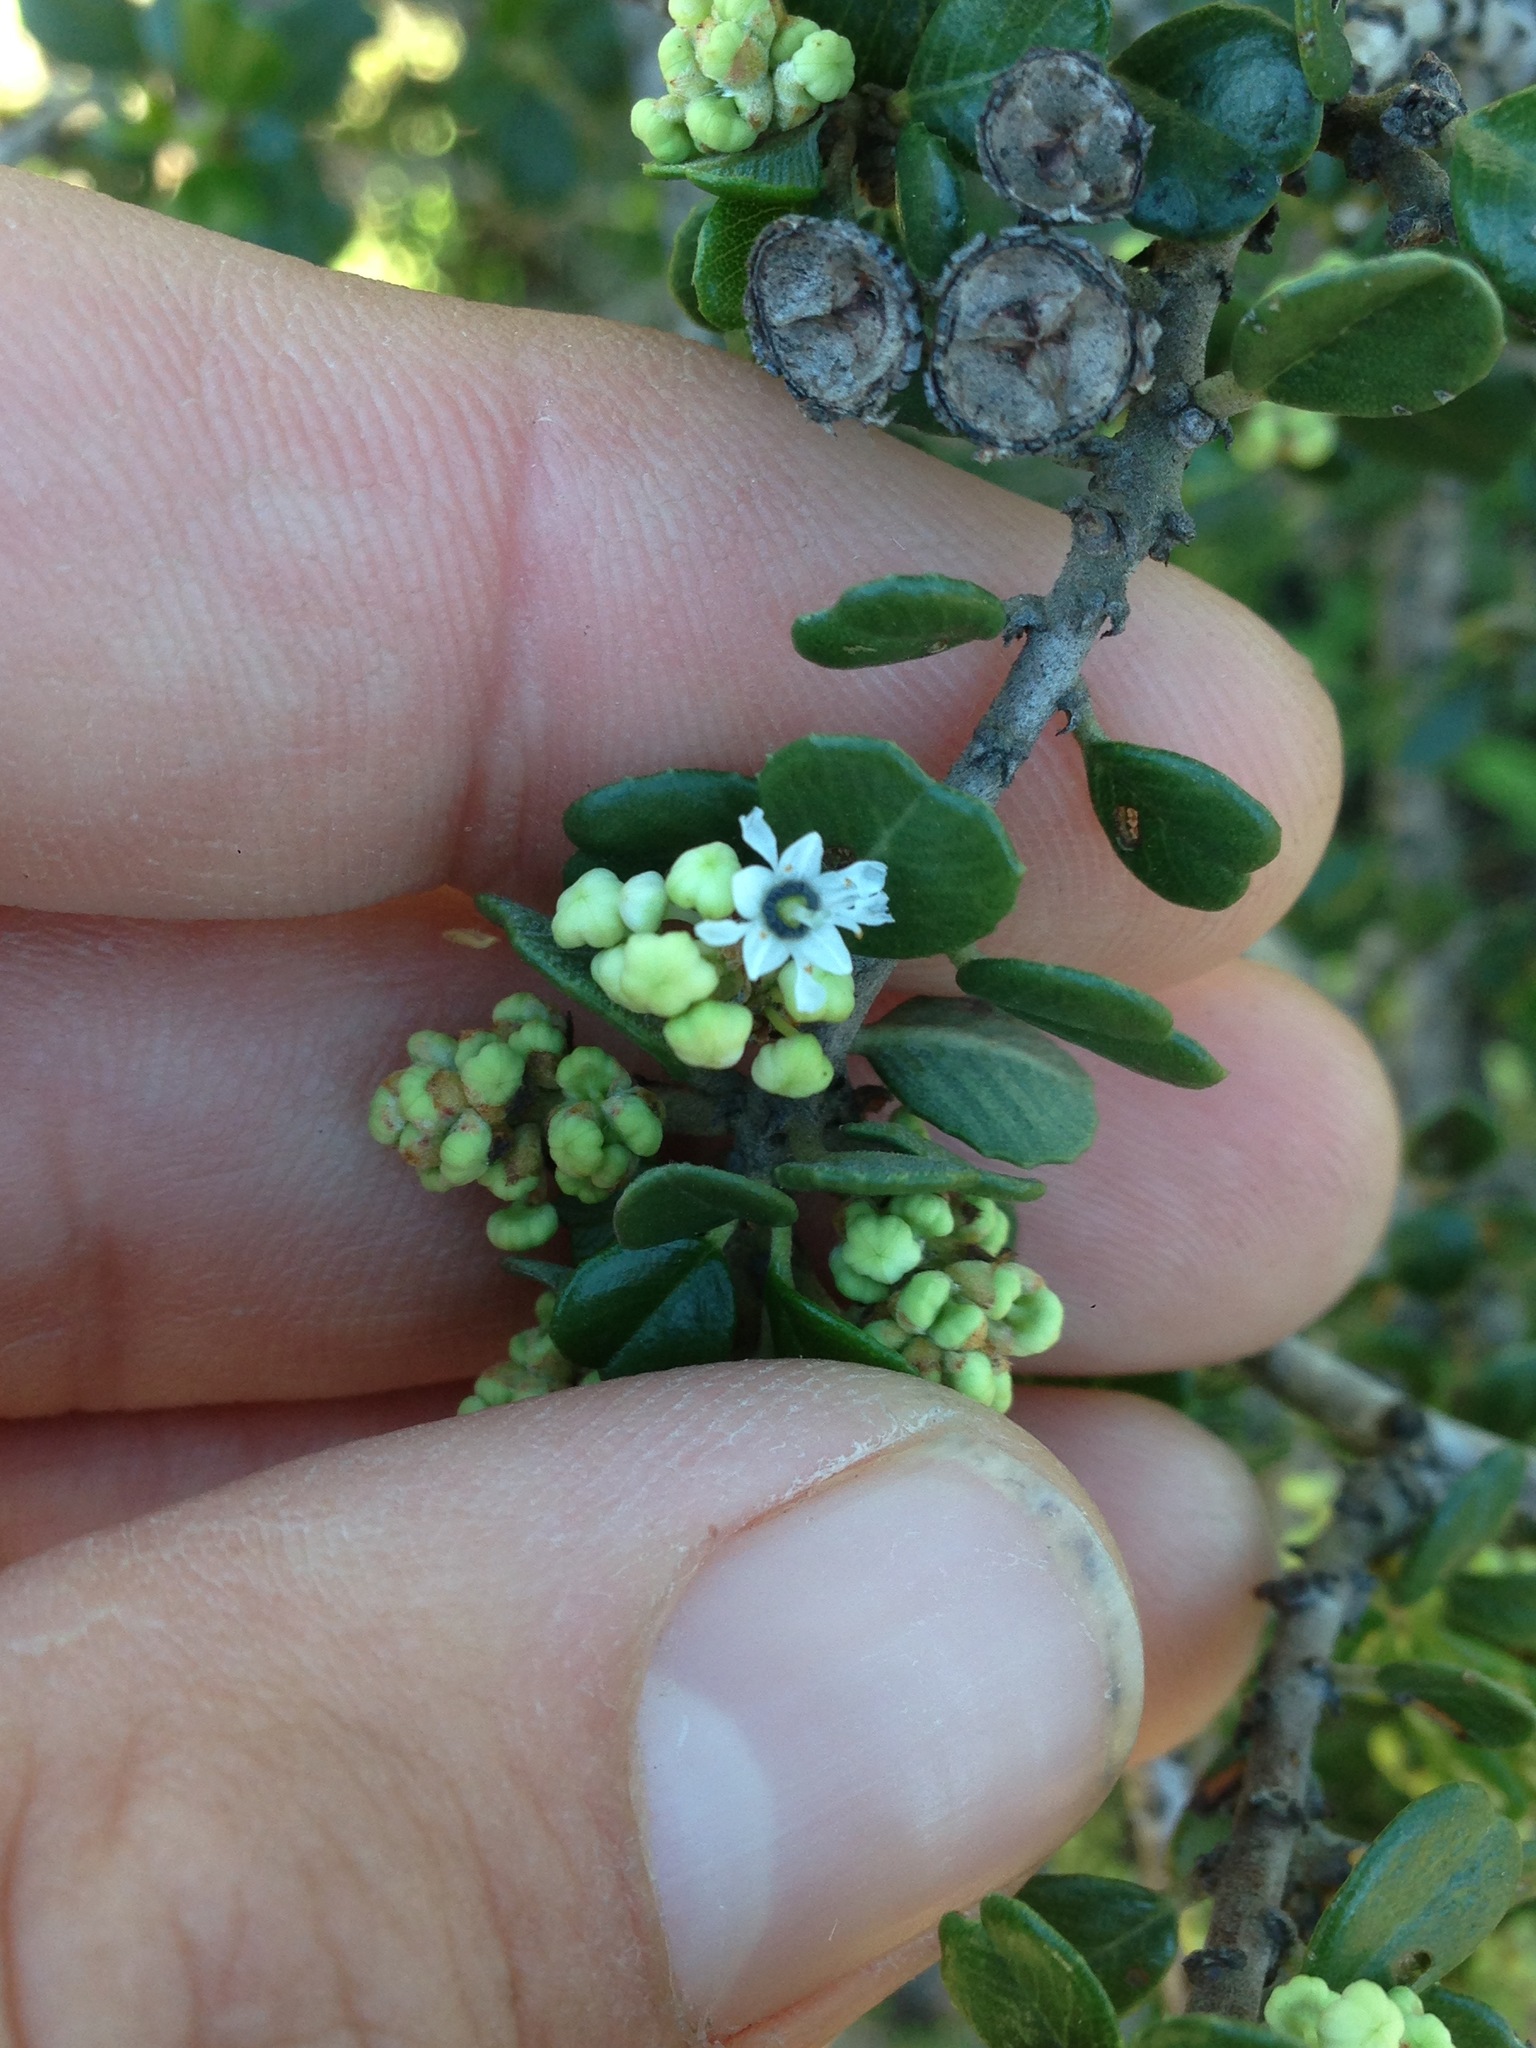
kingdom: Plantae
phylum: Tracheophyta
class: Magnoliopsida
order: Rosales
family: Rhamnaceae
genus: Ceanothus
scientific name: Ceanothus verrucosus
